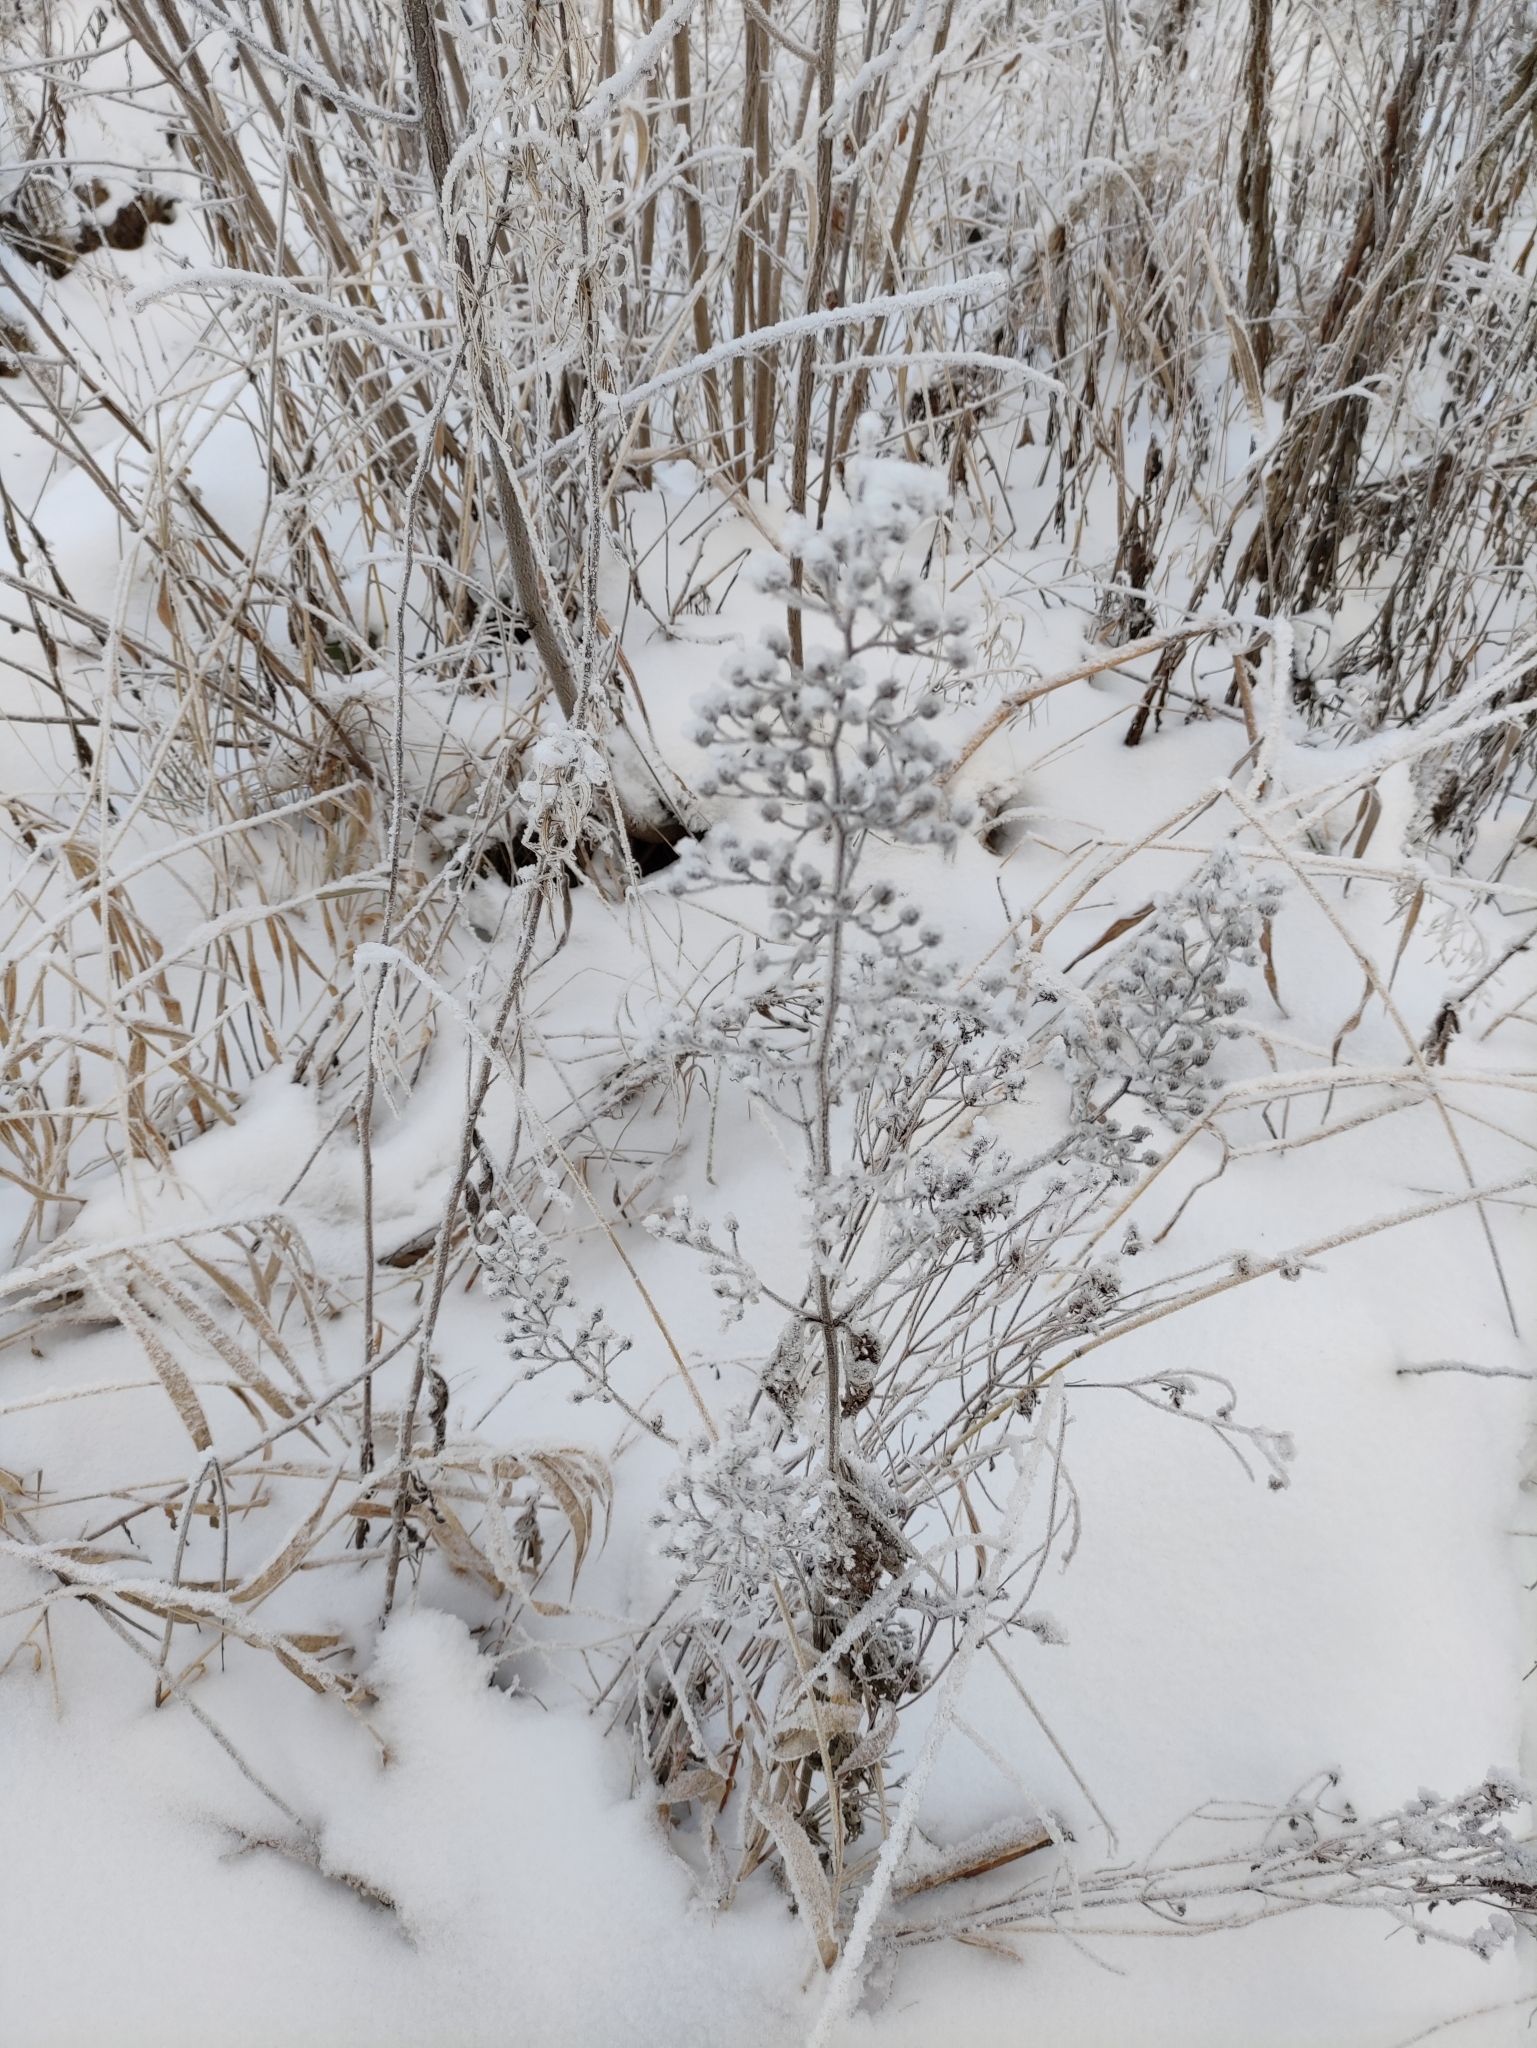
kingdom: Plantae
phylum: Tracheophyta
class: Magnoliopsida
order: Lamiales
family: Scrophulariaceae
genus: Scrophularia
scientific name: Scrophularia nodosa
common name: Common figwort
